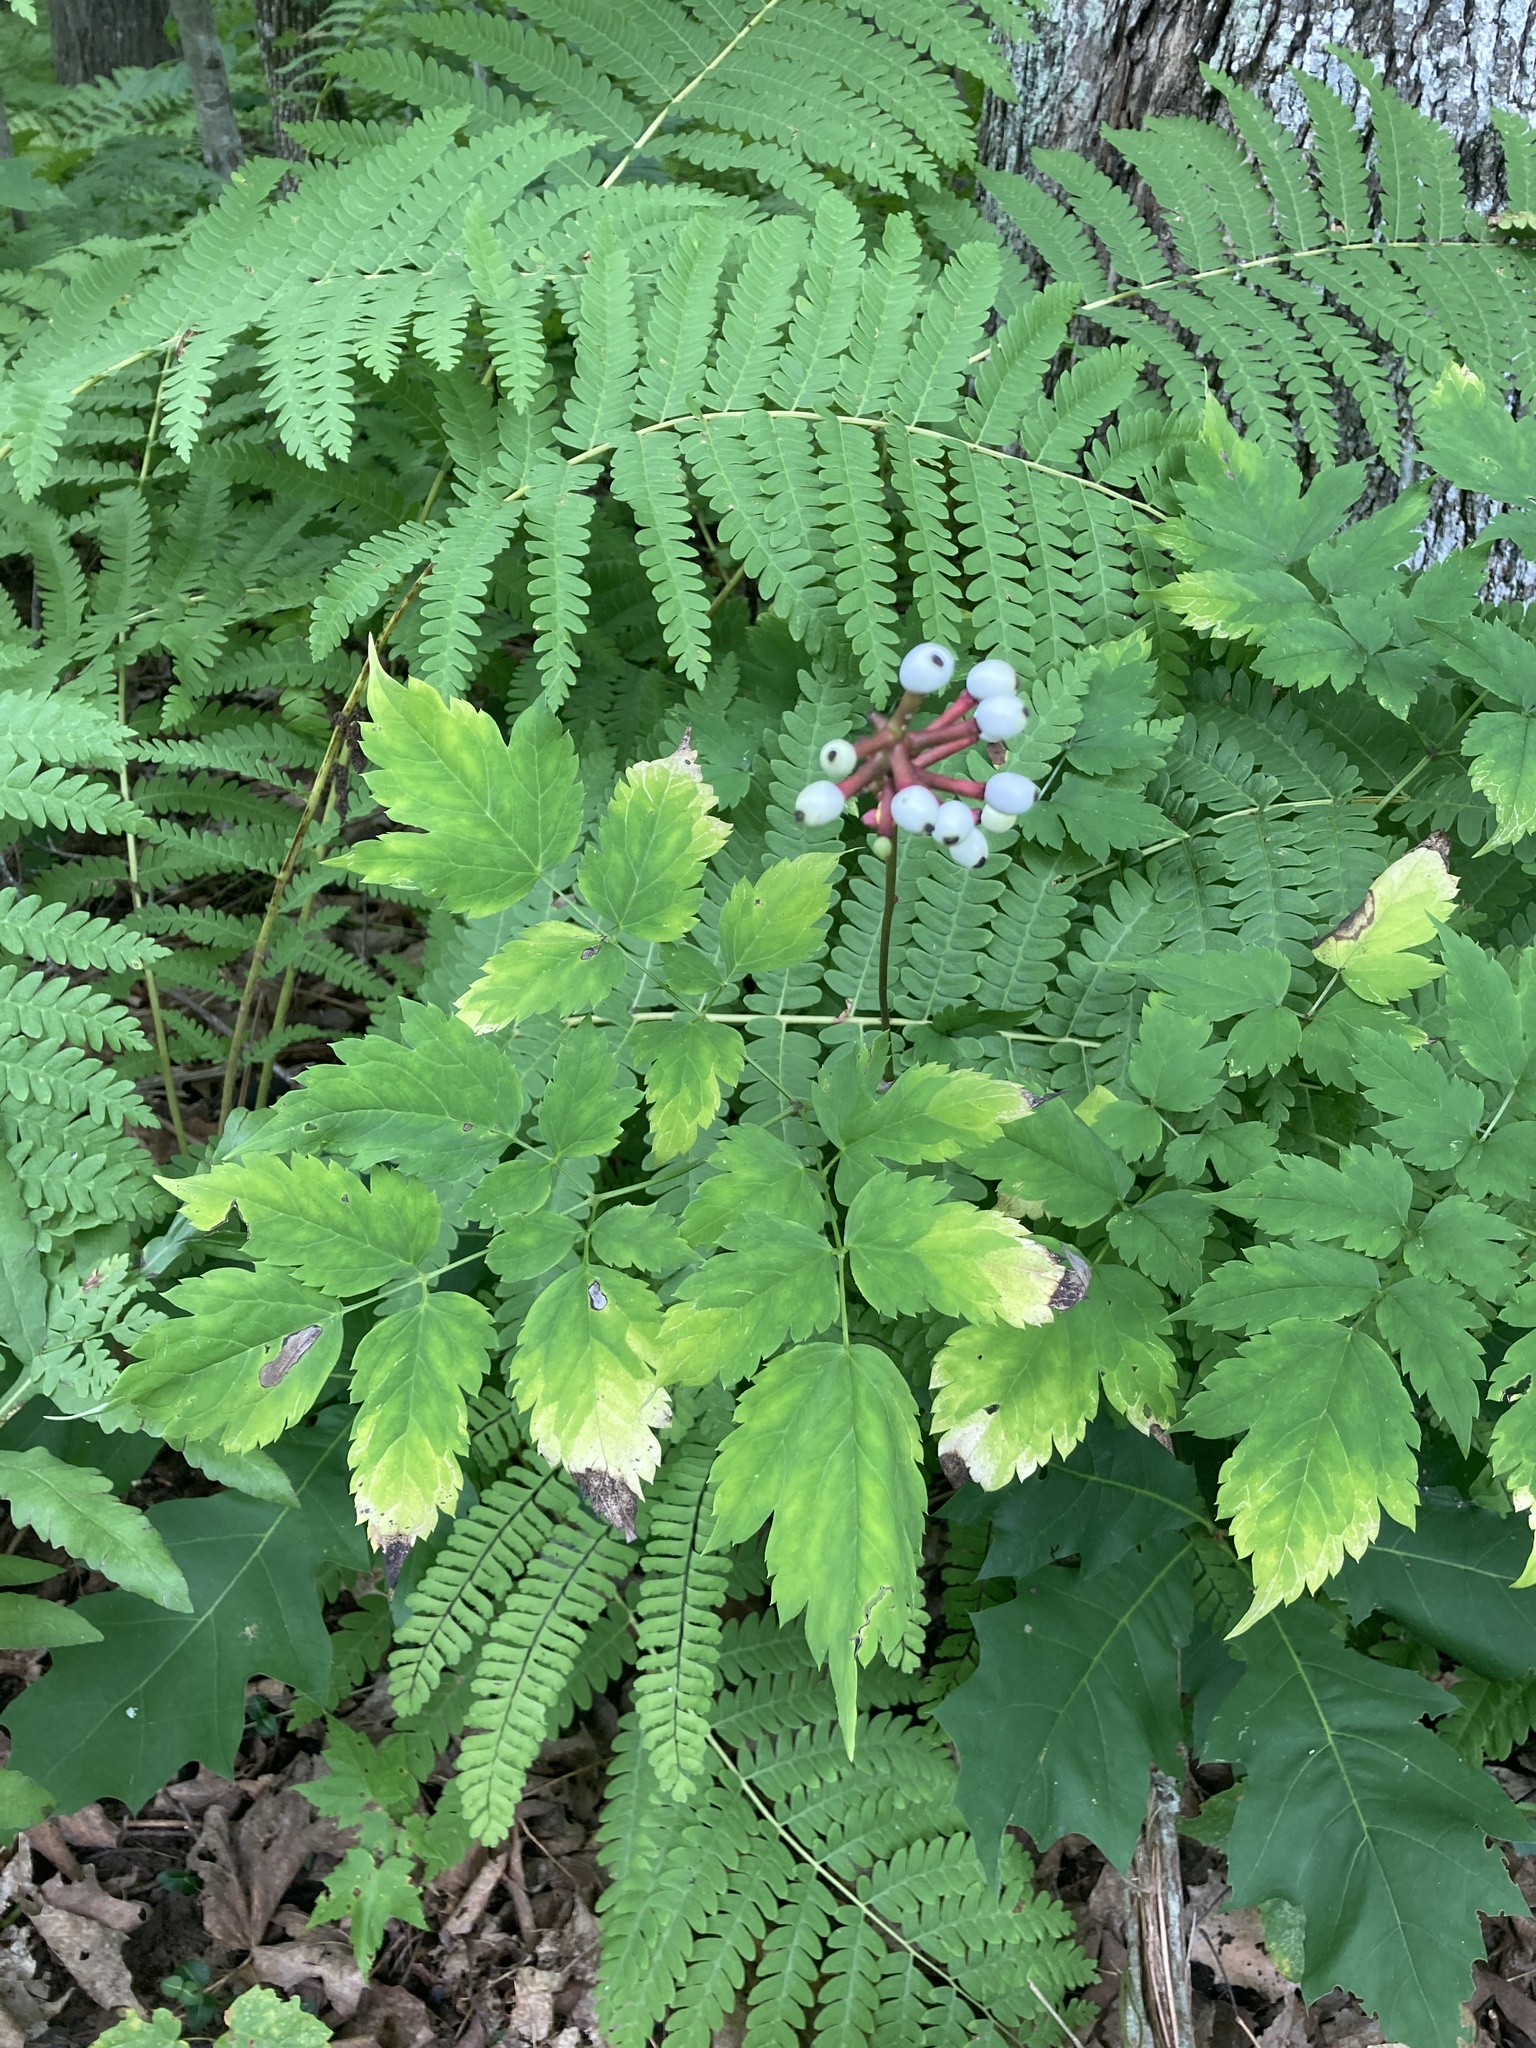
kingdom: Plantae
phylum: Tracheophyta
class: Magnoliopsida
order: Ranunculales
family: Ranunculaceae
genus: Actaea
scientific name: Actaea pachypoda
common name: Doll's-eyes
